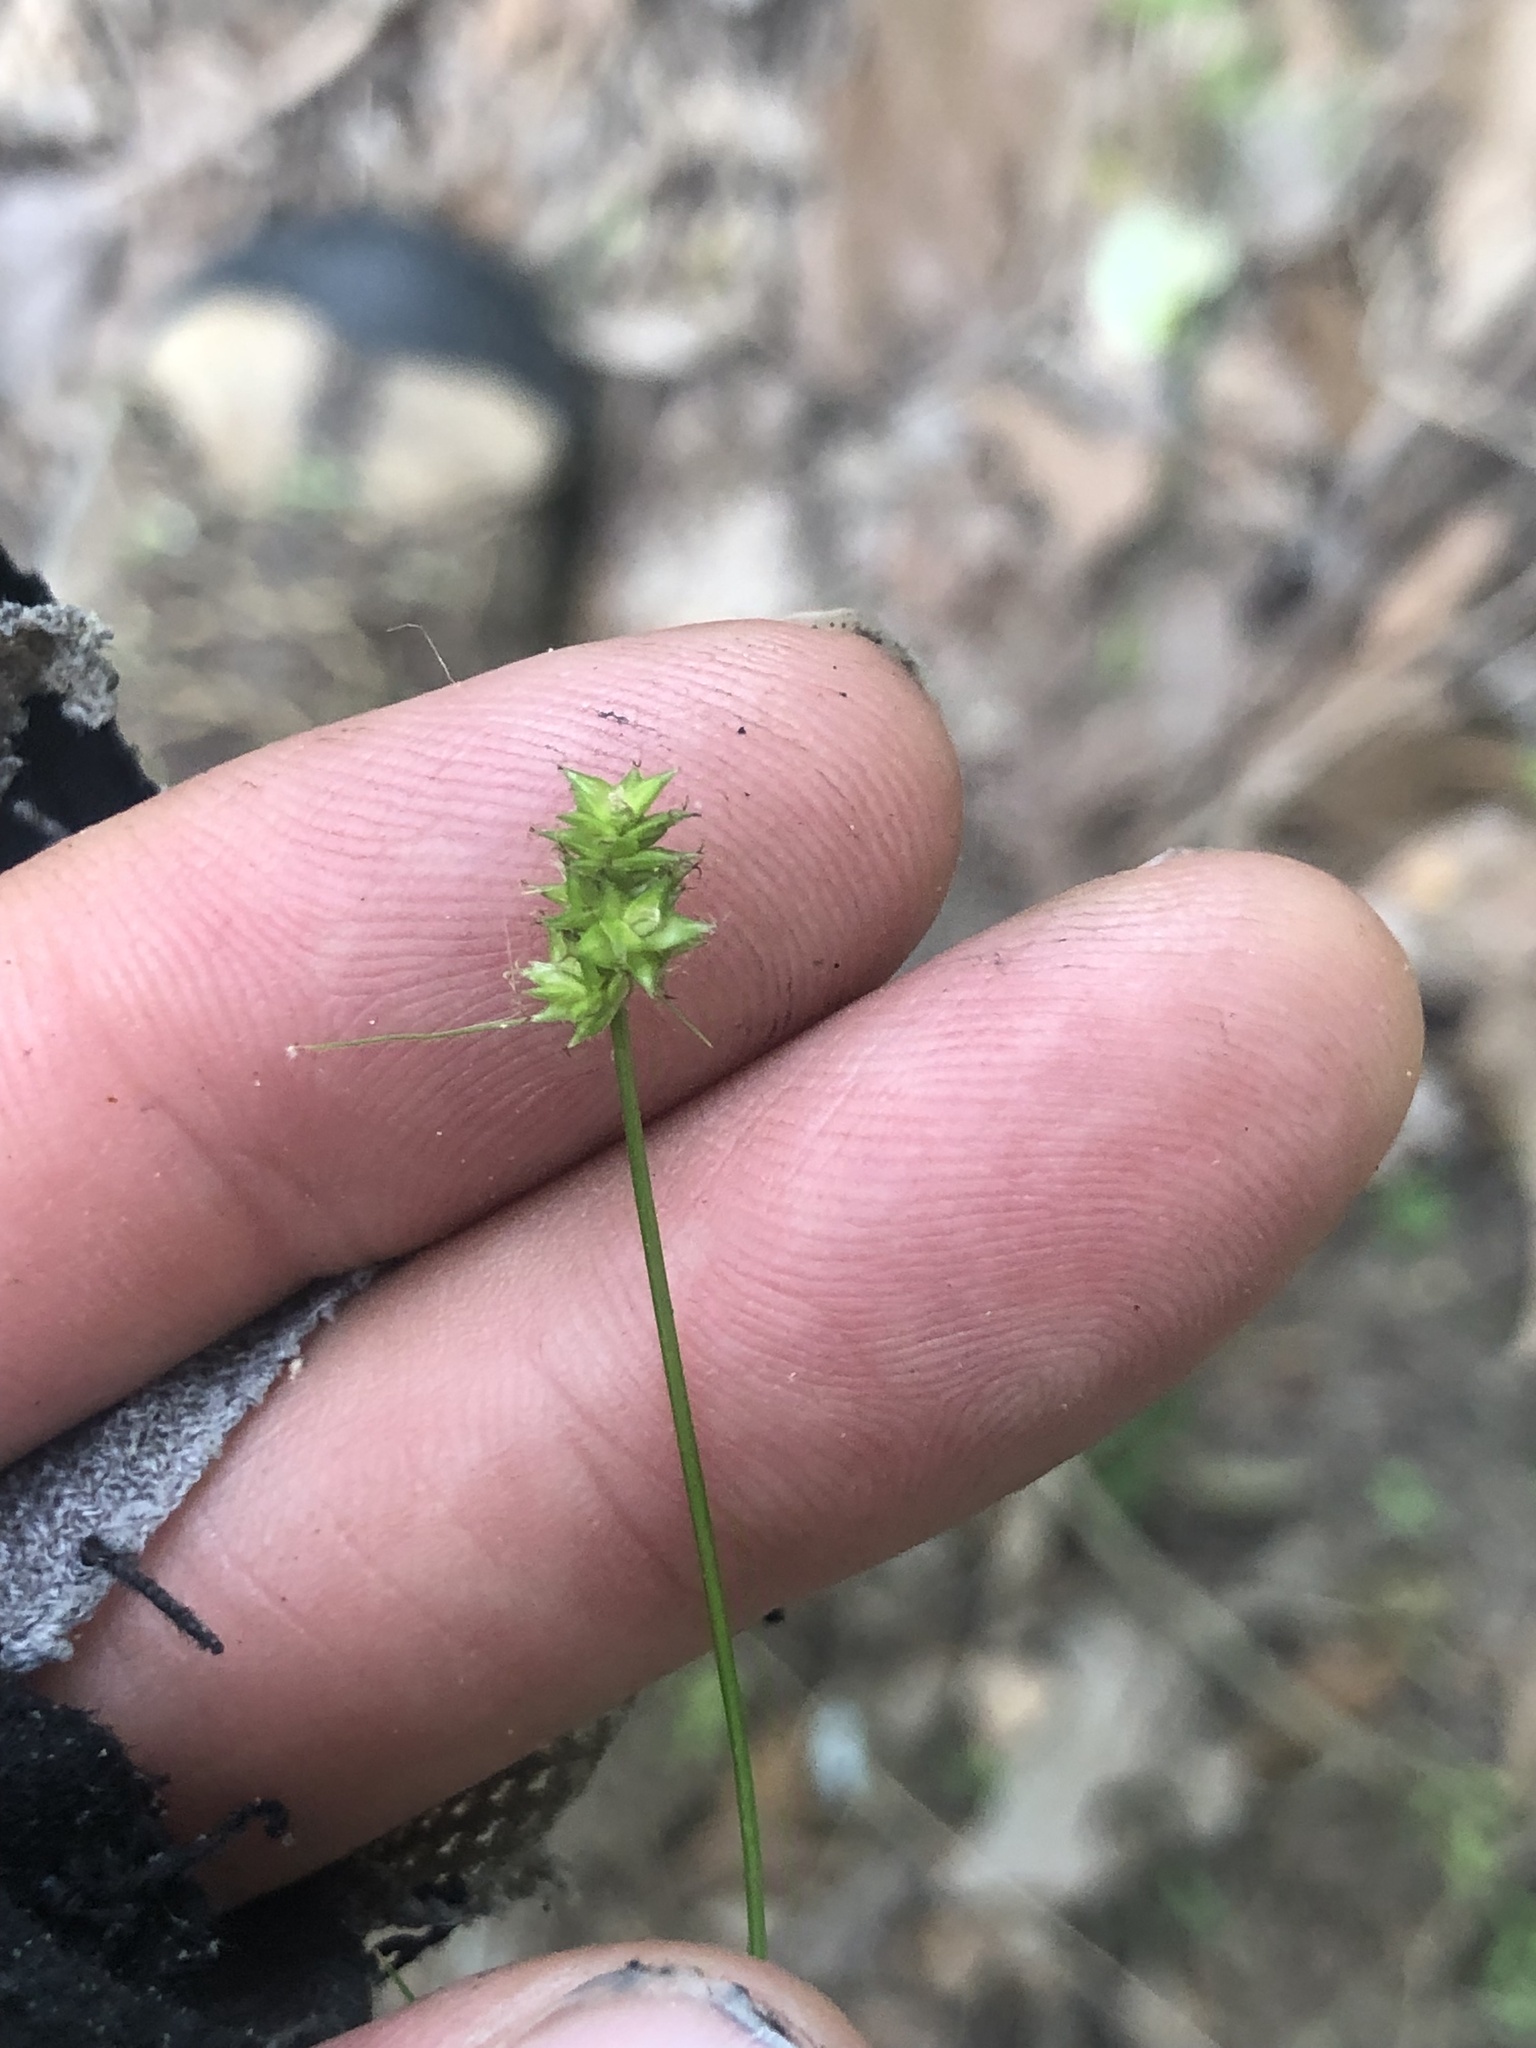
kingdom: Plantae
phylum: Tracheophyta
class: Liliopsida
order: Poales
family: Cyperaceae
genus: Carex
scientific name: Carex leavenworthii
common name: Leavenworth's bracted sedge
